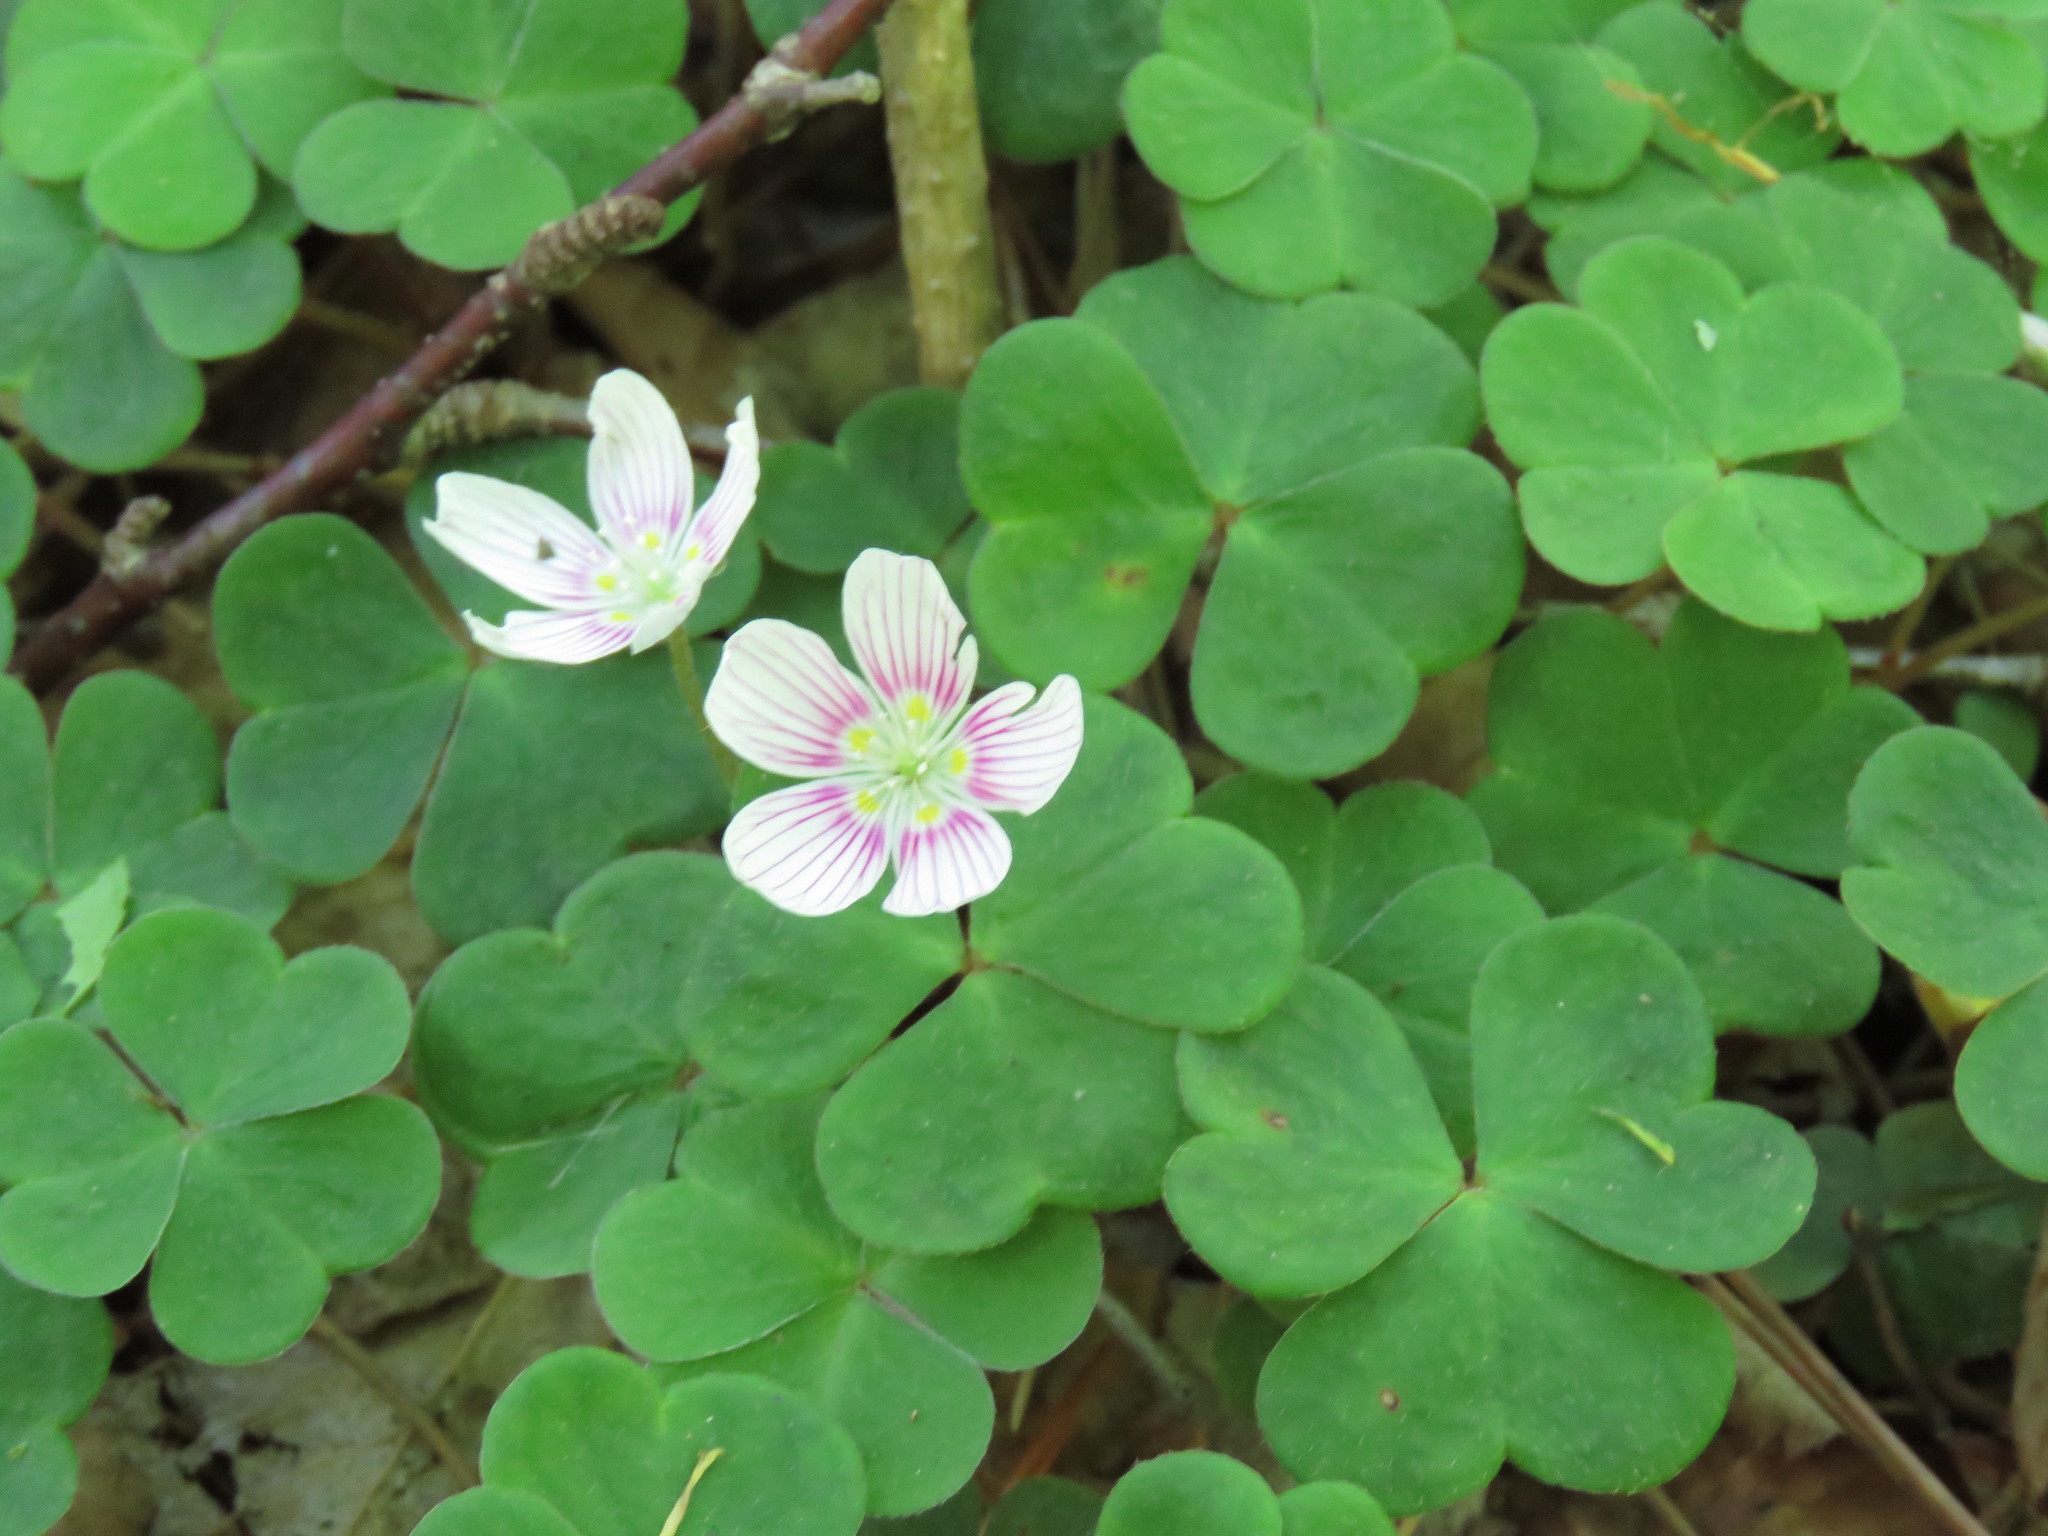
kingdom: Plantae
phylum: Tracheophyta
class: Magnoliopsida
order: Oxalidales
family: Oxalidaceae
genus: Oxalis
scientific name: Oxalis montana
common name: American wood-sorrel
